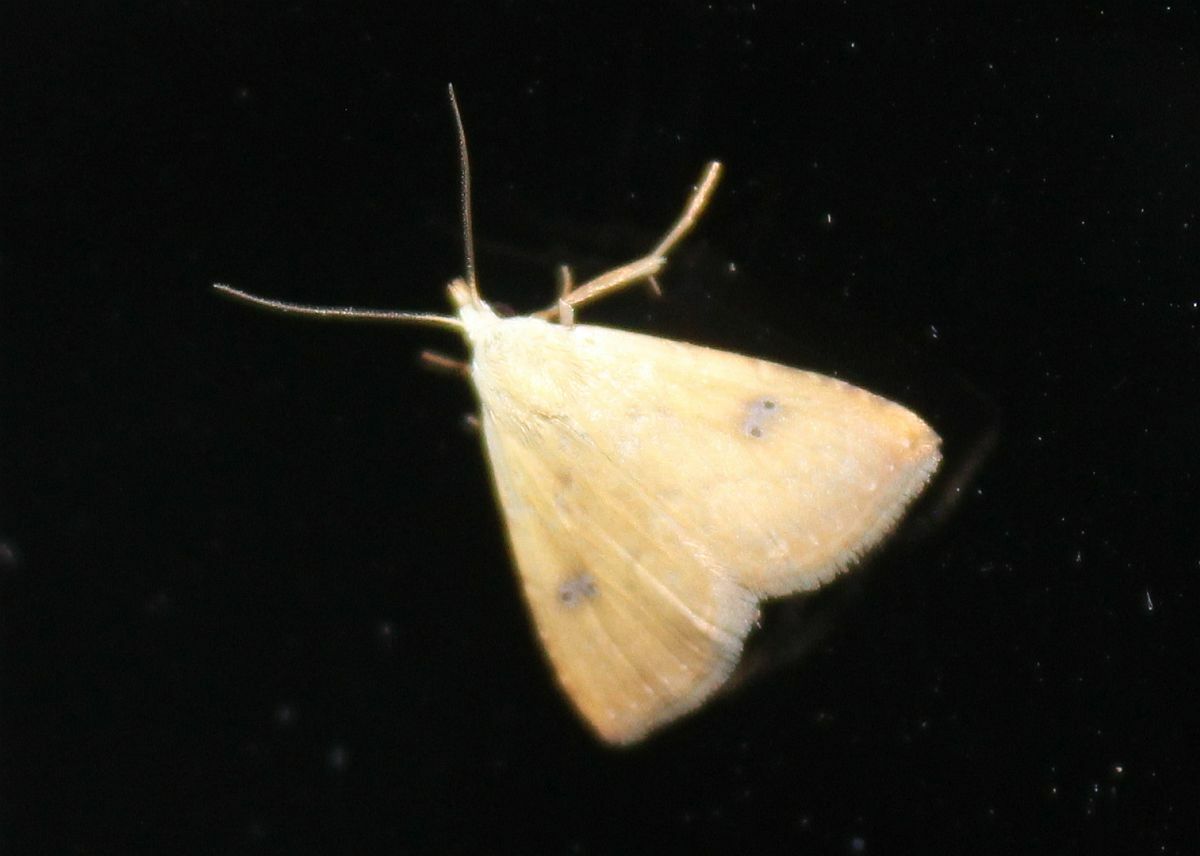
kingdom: Animalia
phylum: Arthropoda
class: Insecta
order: Lepidoptera
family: Erebidae
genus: Rivula
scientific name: Rivula sericealis
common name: Straw dot
